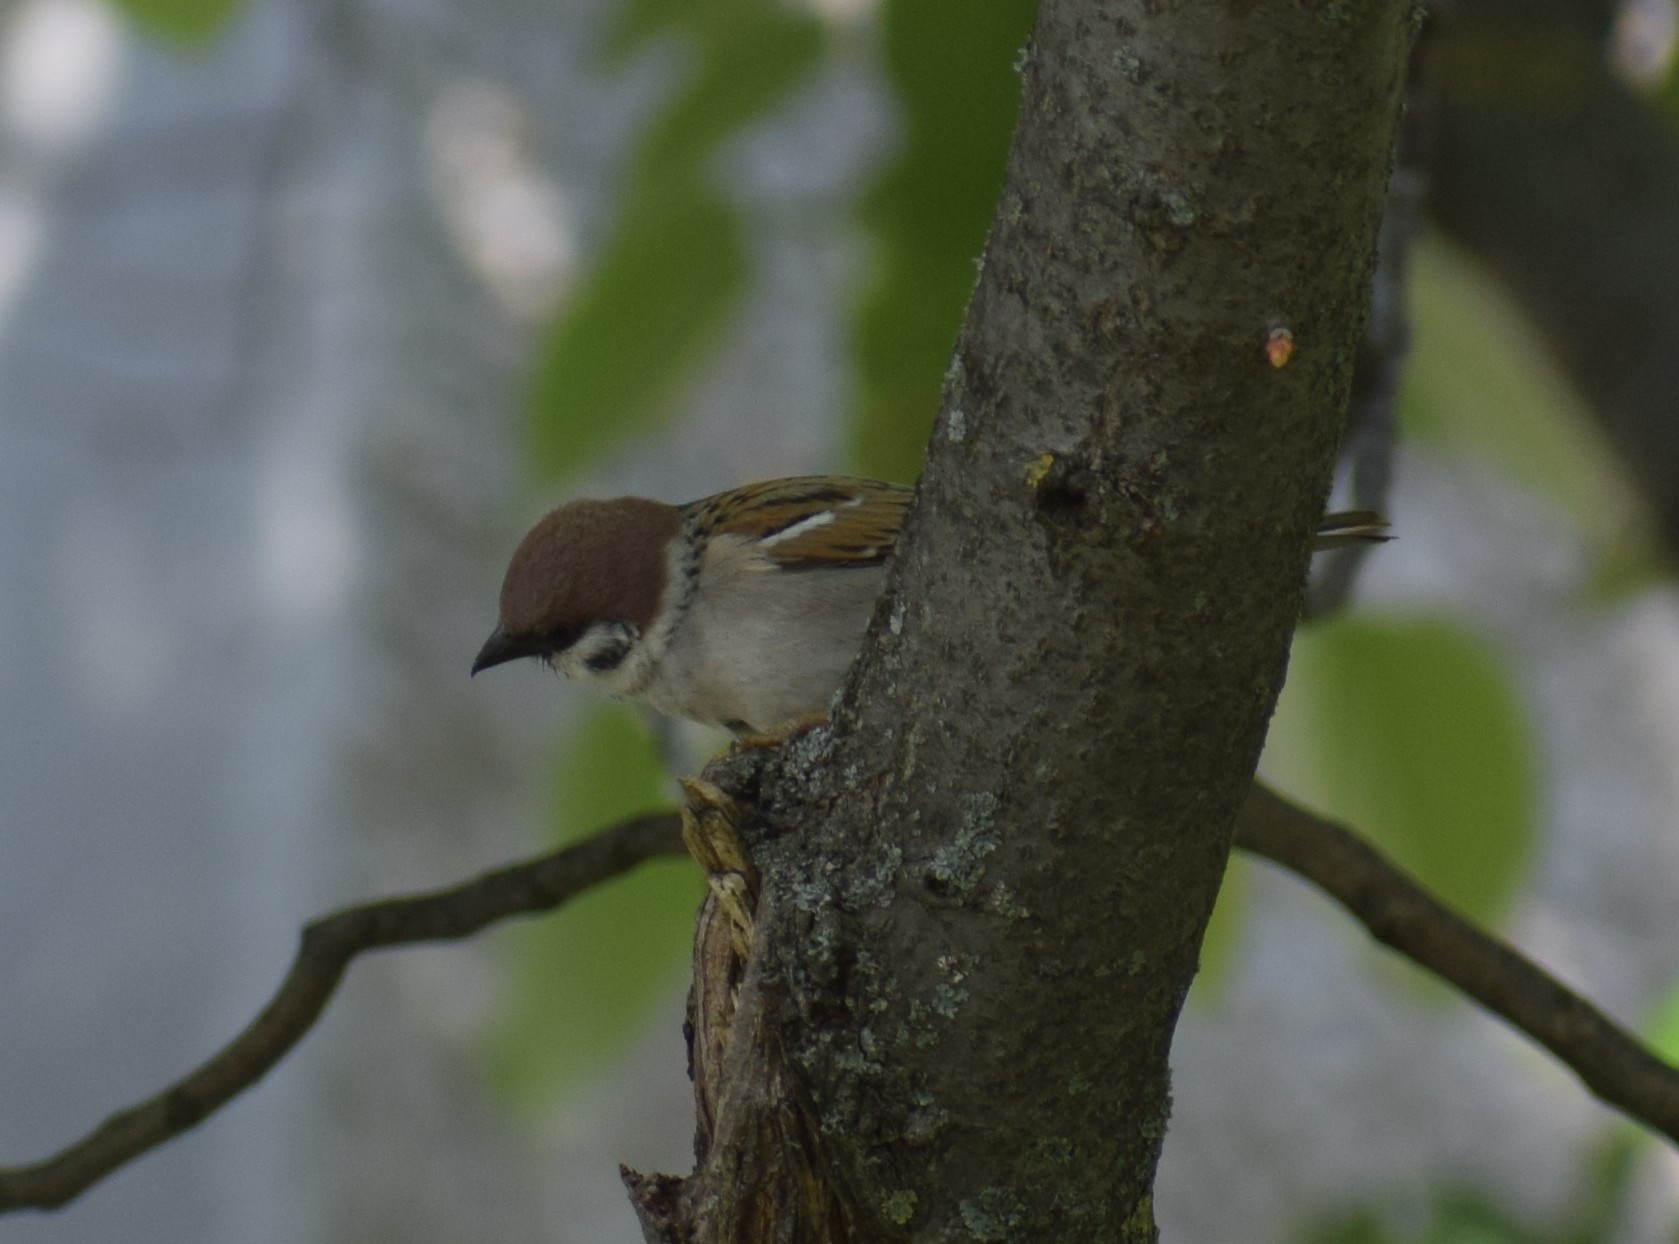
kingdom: Animalia
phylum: Chordata
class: Aves
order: Passeriformes
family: Passeridae
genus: Passer
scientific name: Passer montanus
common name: Eurasian tree sparrow
